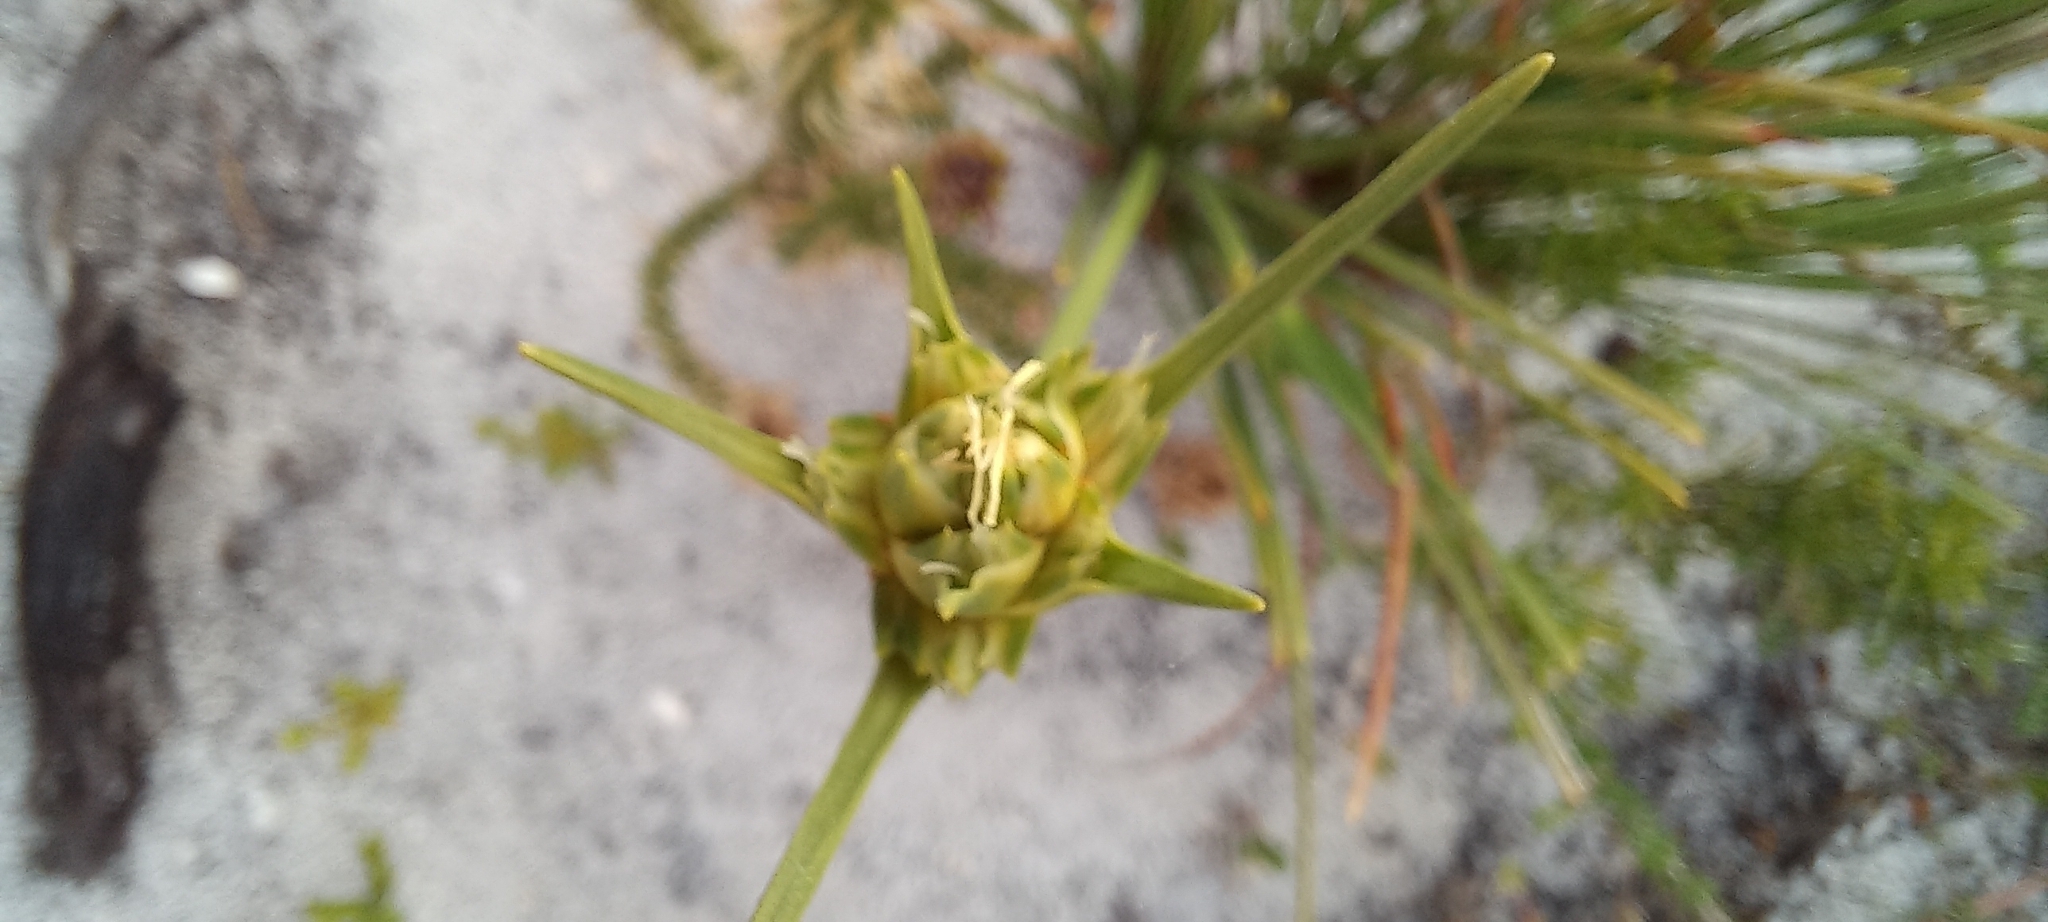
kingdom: Plantae
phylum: Tracheophyta
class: Liliopsida
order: Poales
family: Cyperaceae
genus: Ficinia
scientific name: Ficinia pallens
